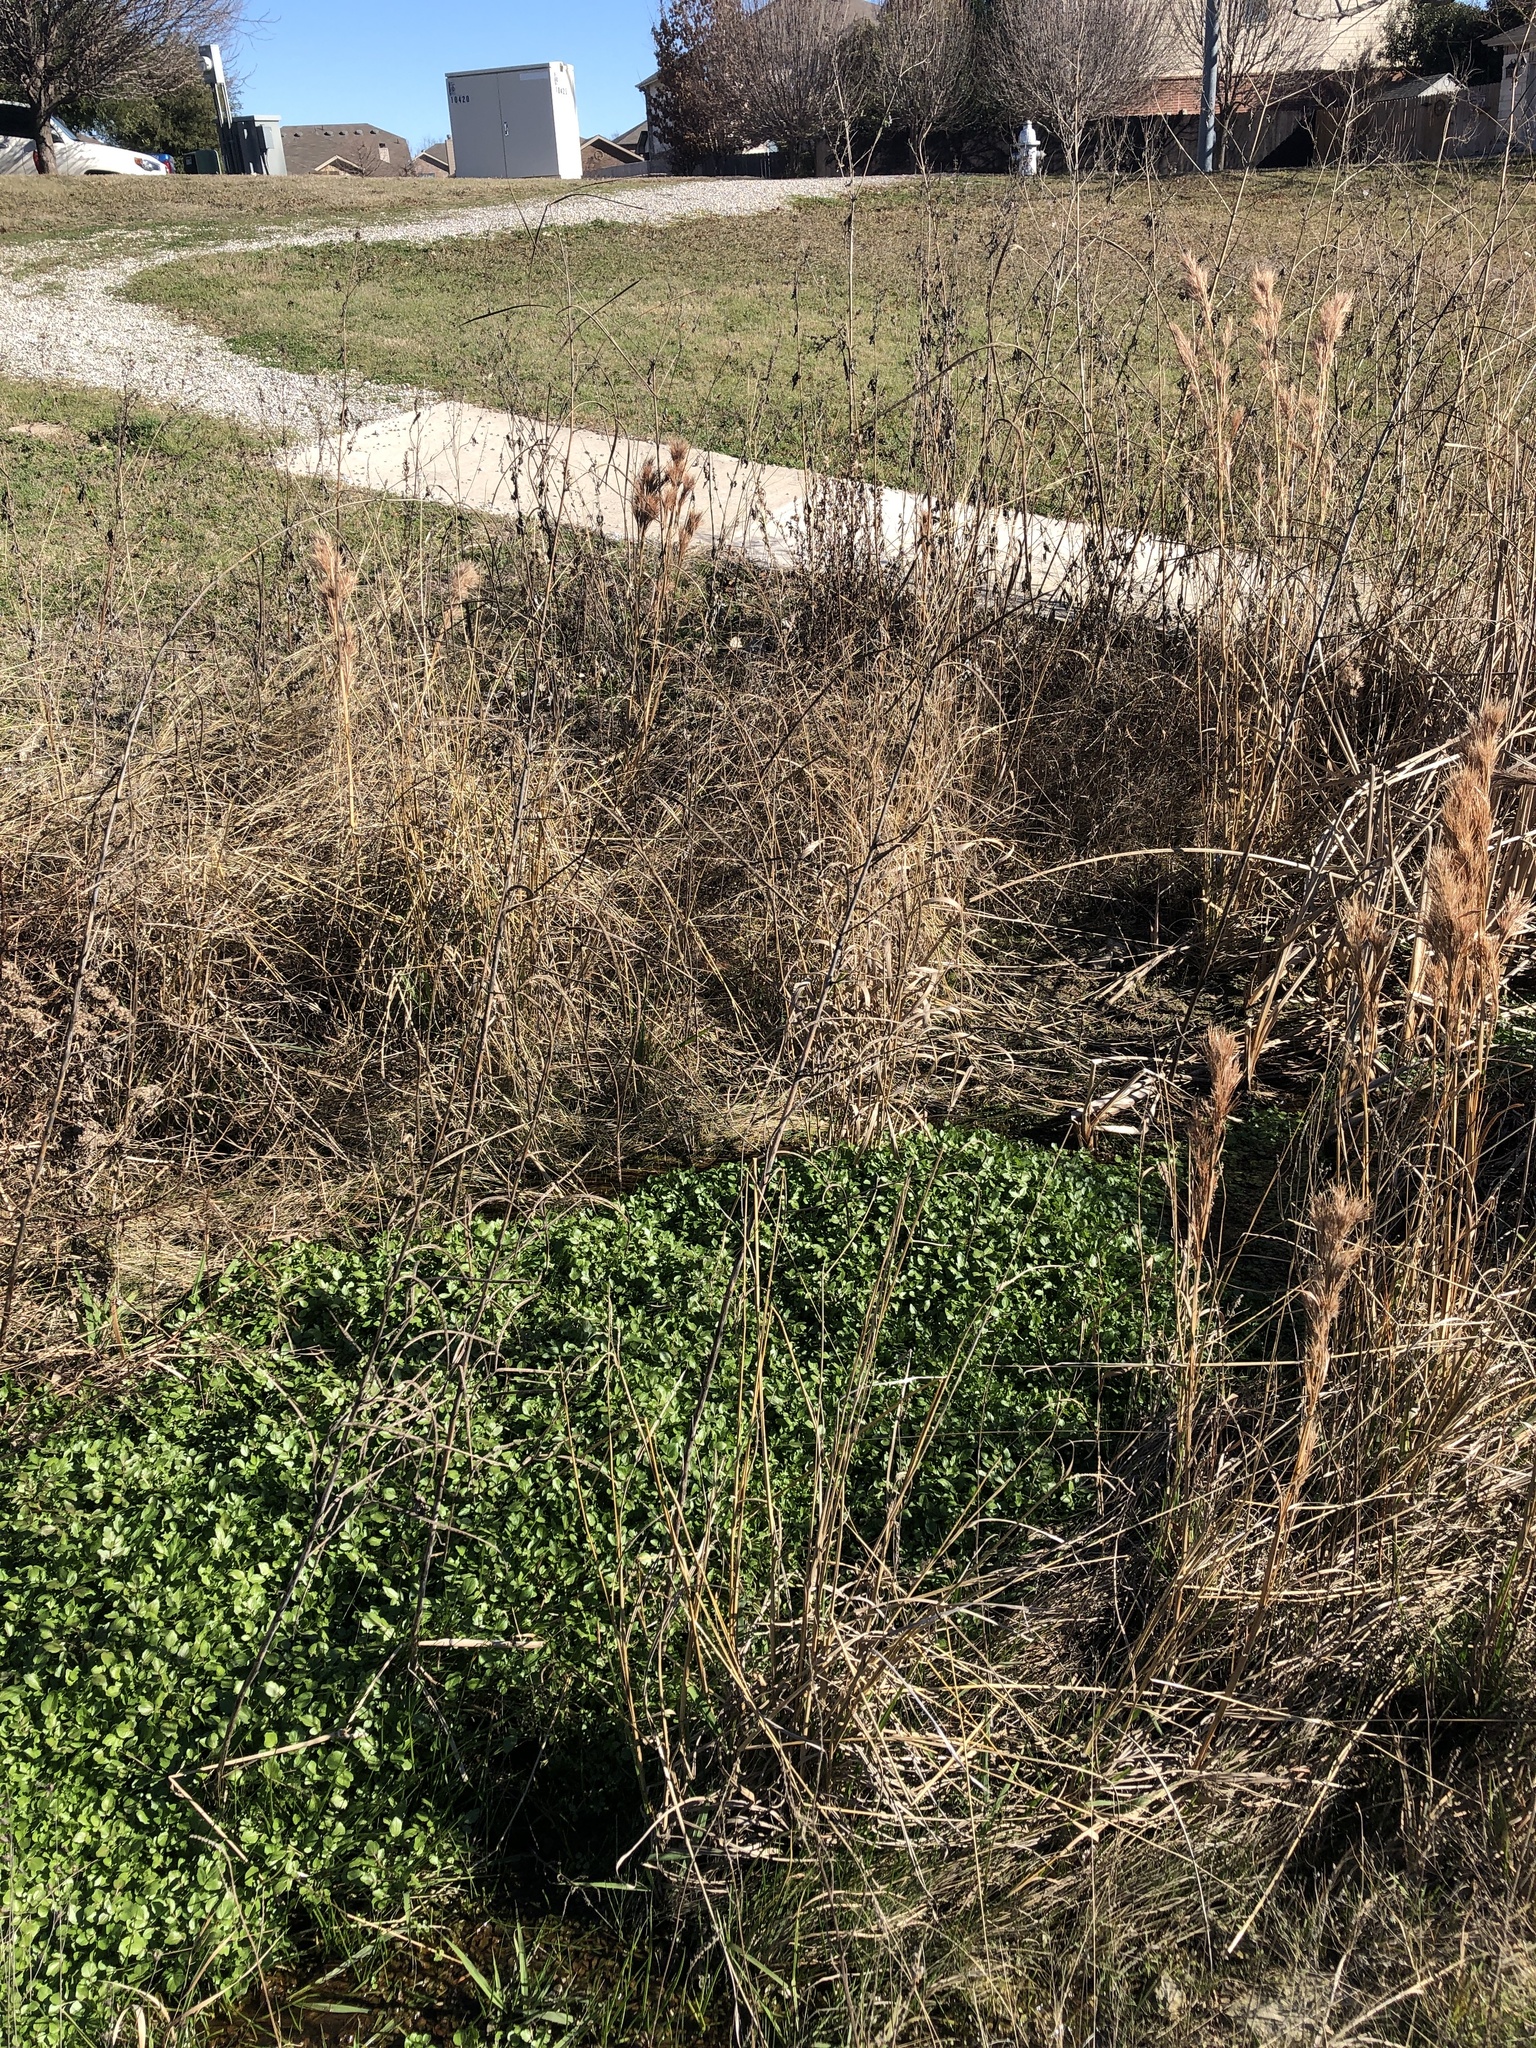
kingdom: Plantae
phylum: Tracheophyta
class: Magnoliopsida
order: Fabales
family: Fabaceae
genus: Sesbania
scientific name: Sesbania herbacea
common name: Bigpod sesbania
